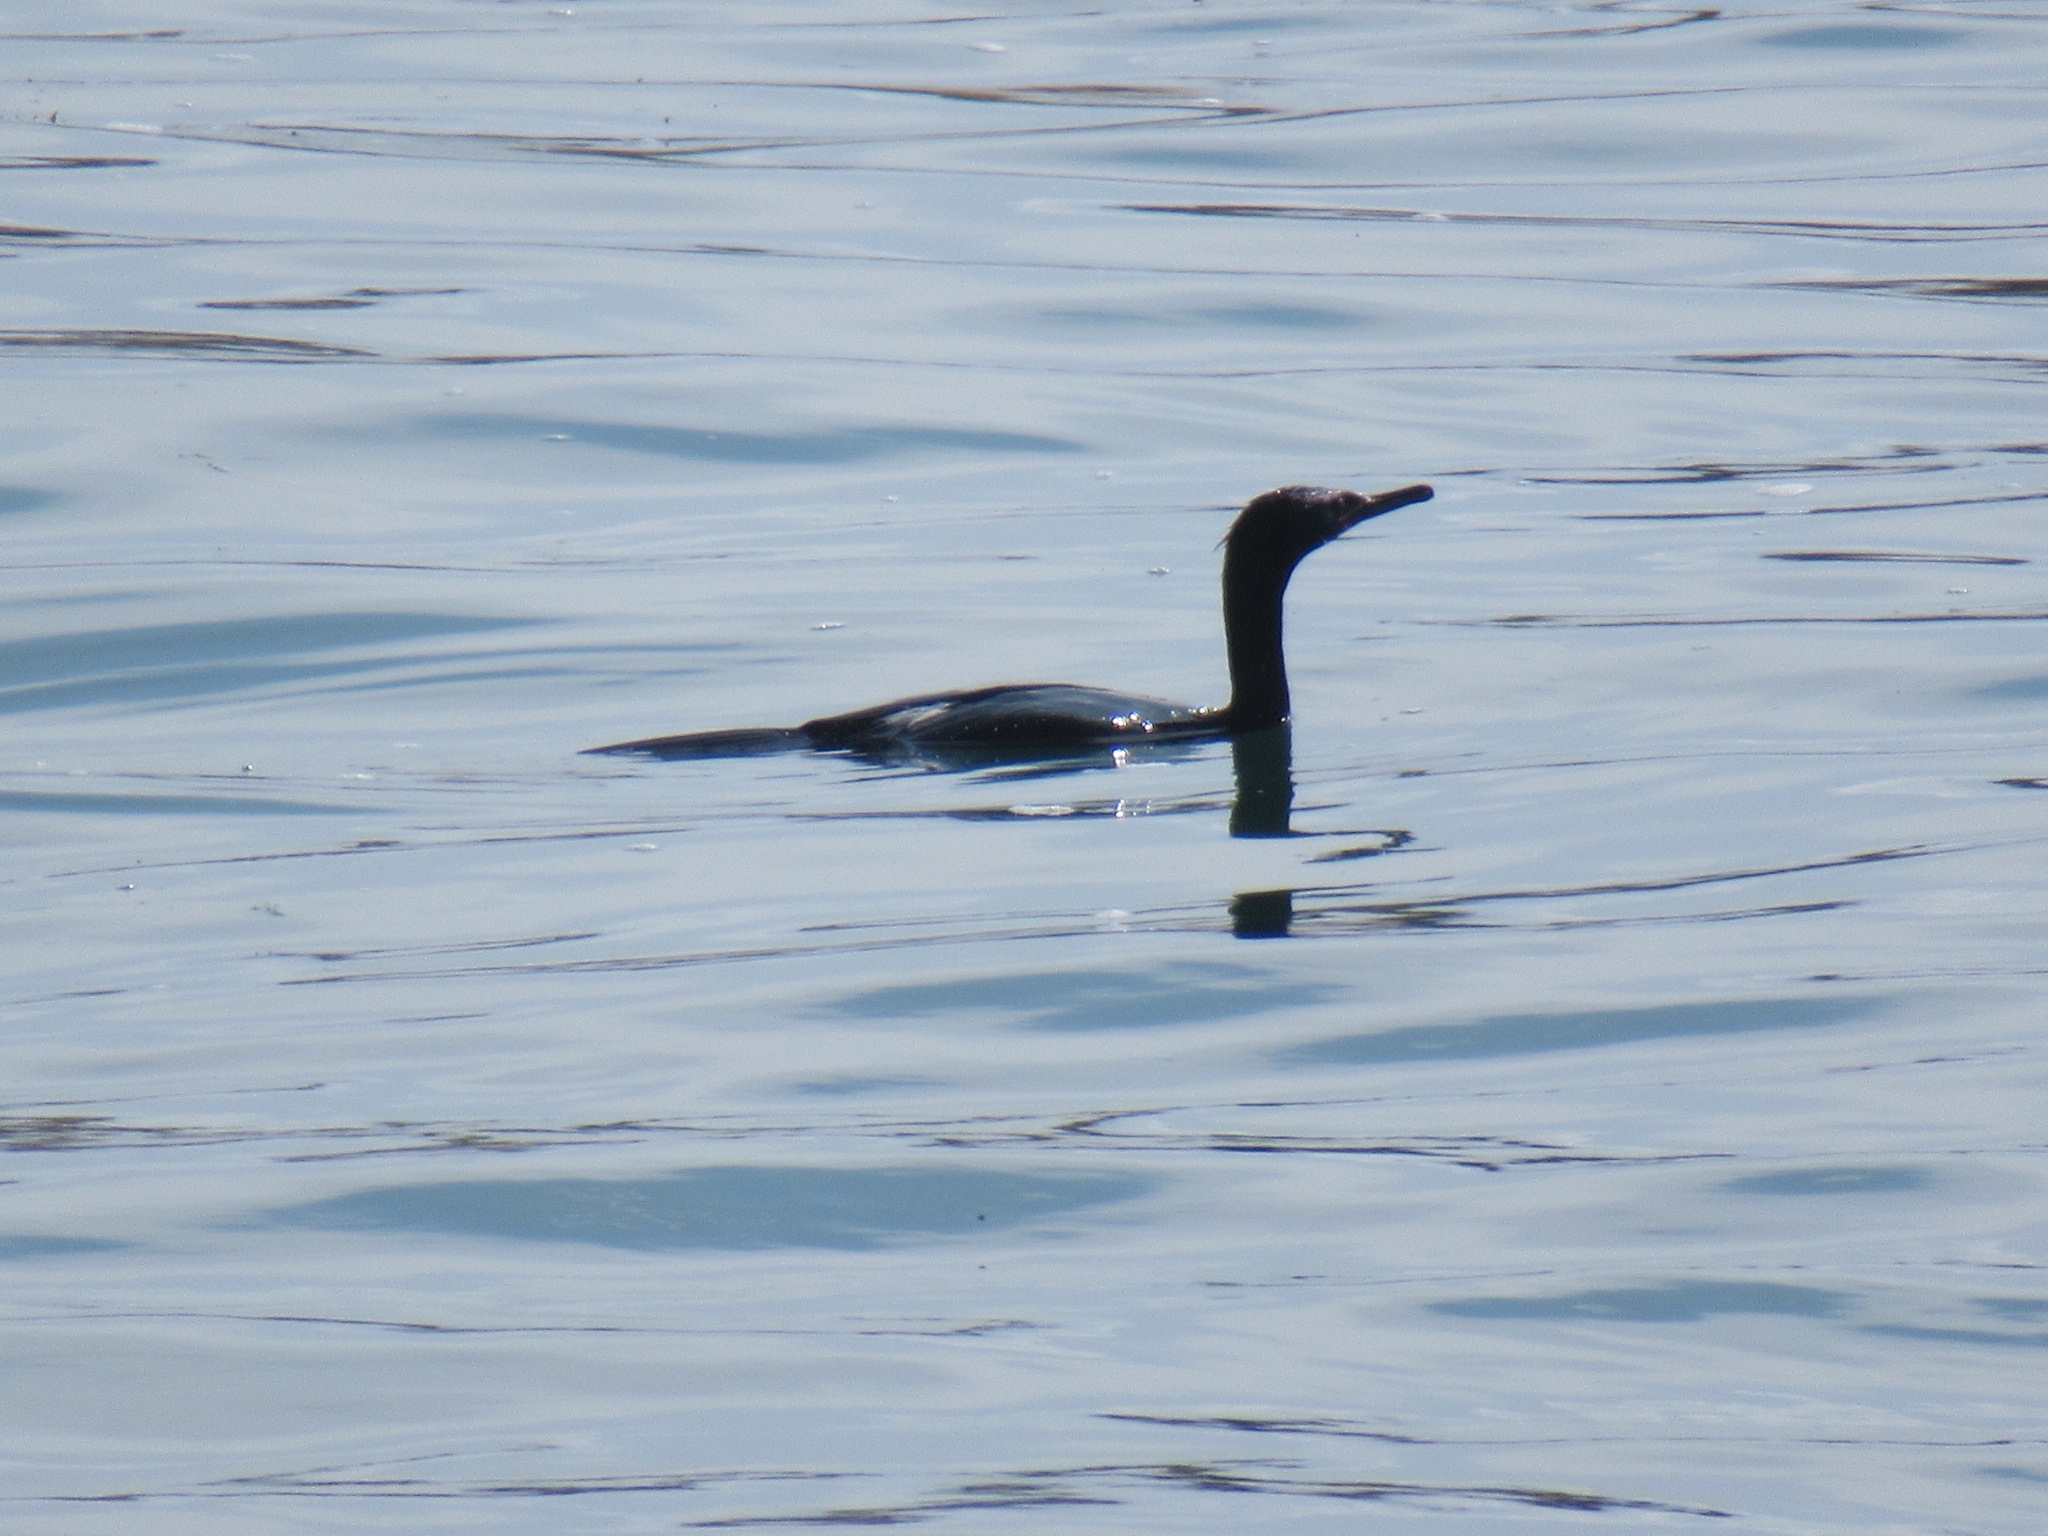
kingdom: Animalia
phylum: Chordata
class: Aves
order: Suliformes
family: Phalacrocoracidae
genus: Phalacrocorax
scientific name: Phalacrocorax auritus
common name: Double-crested cormorant
